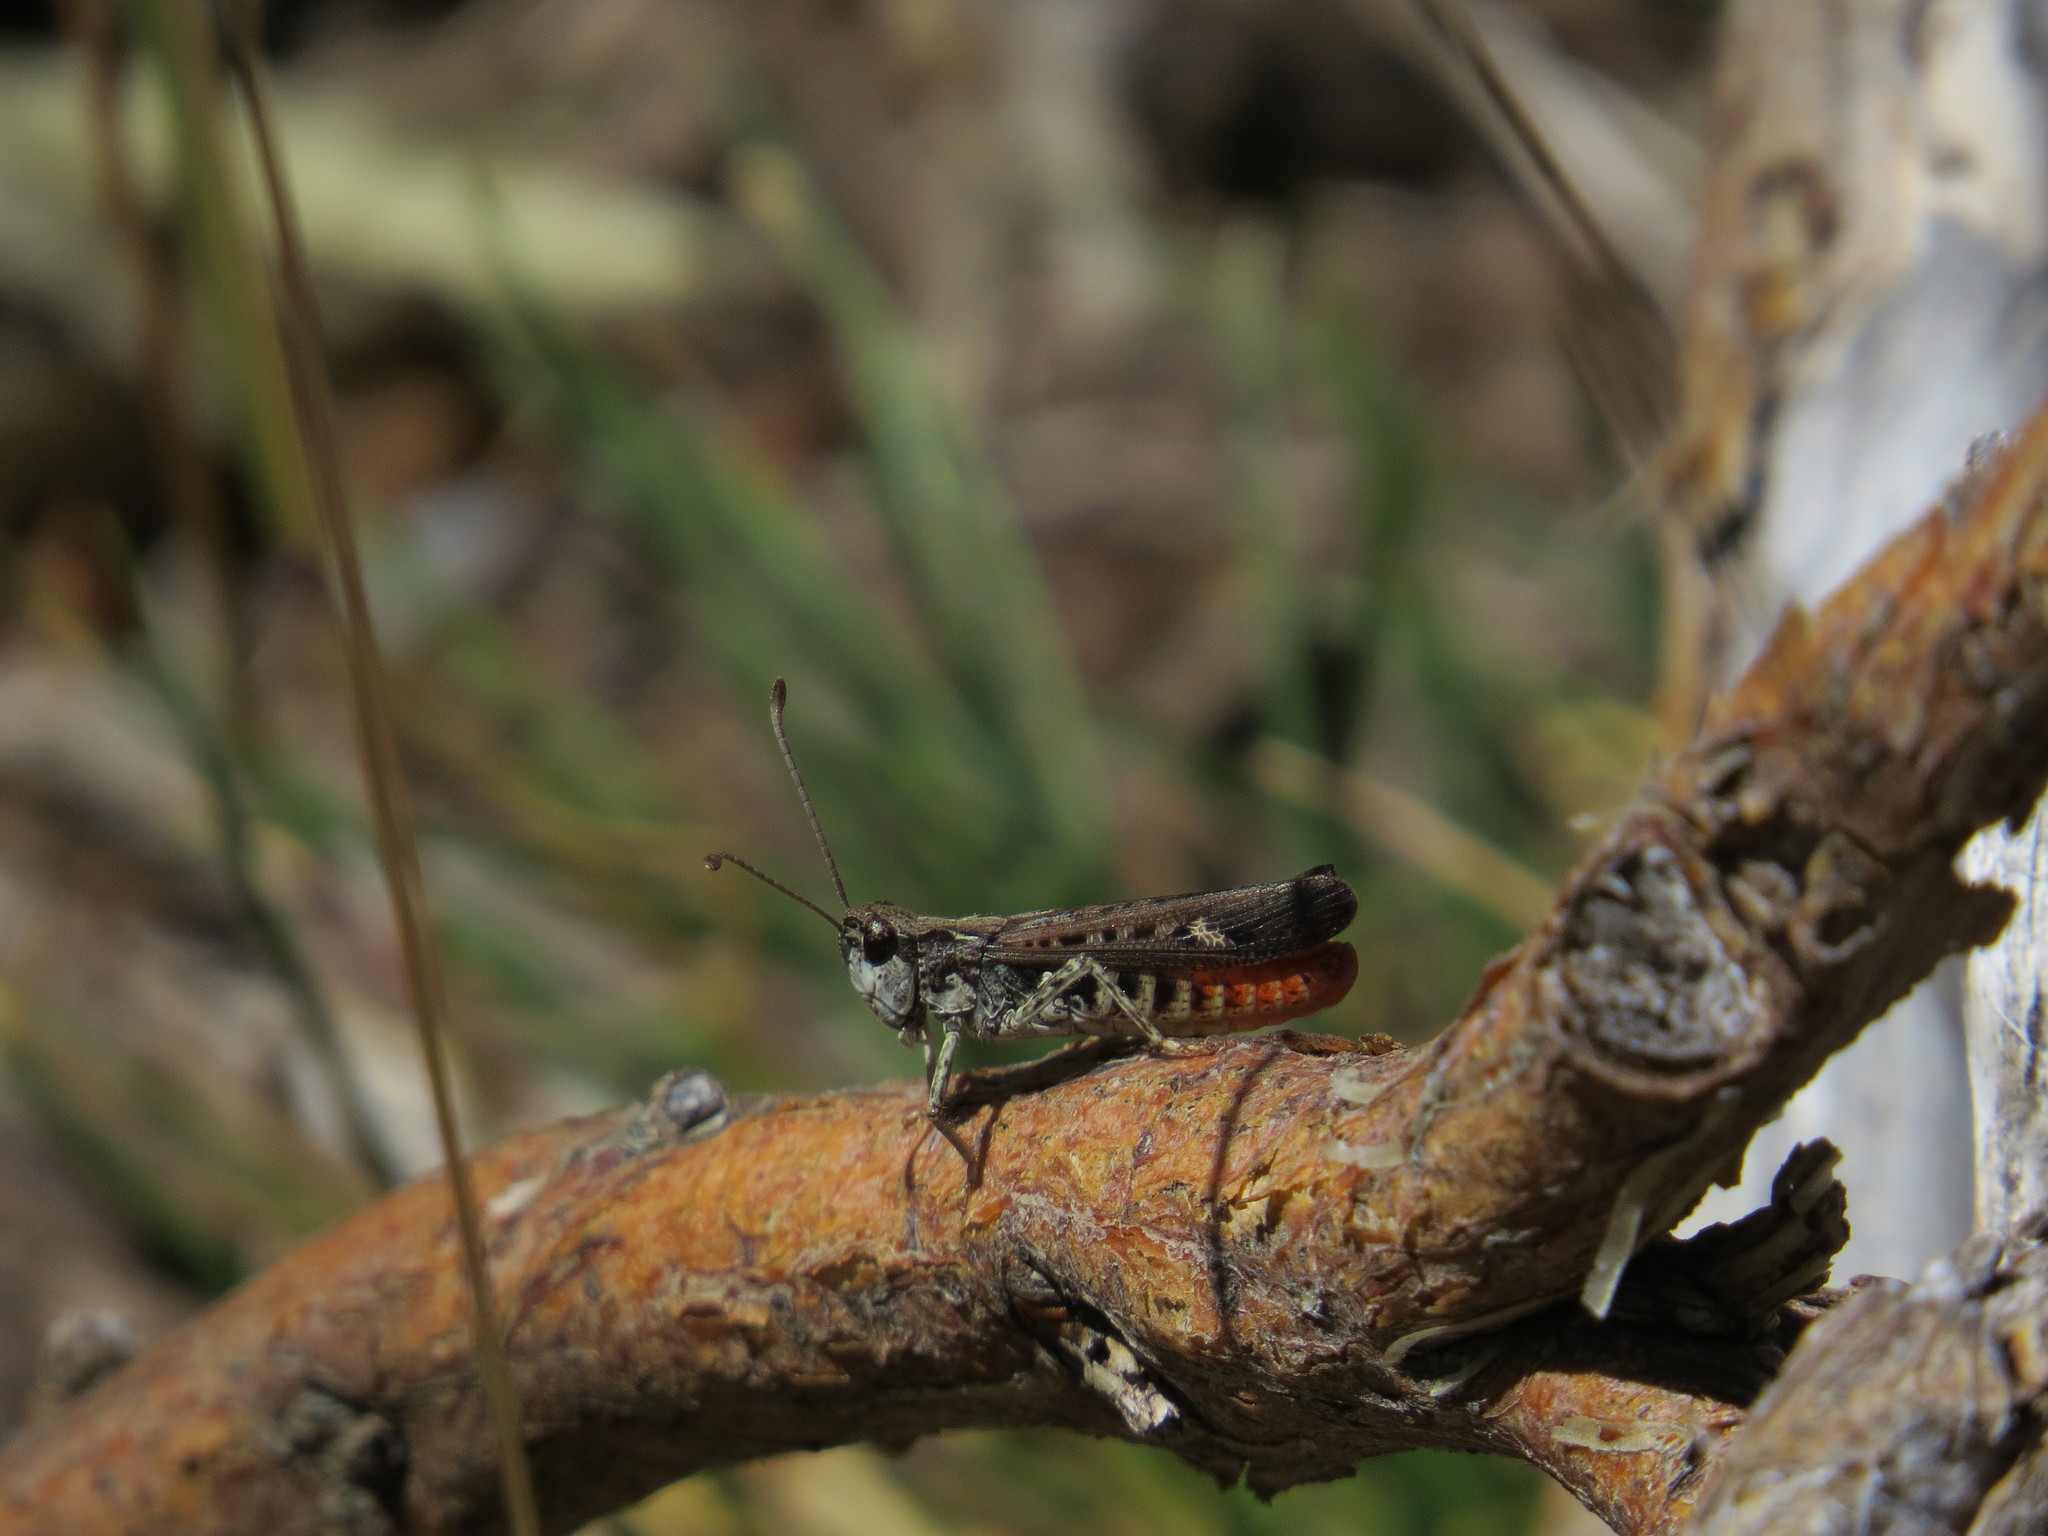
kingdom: Animalia
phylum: Arthropoda
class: Insecta
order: Orthoptera
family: Acrididae
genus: Myrmeleotettix
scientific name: Myrmeleotettix maculatus
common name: Mottled grasshopper
